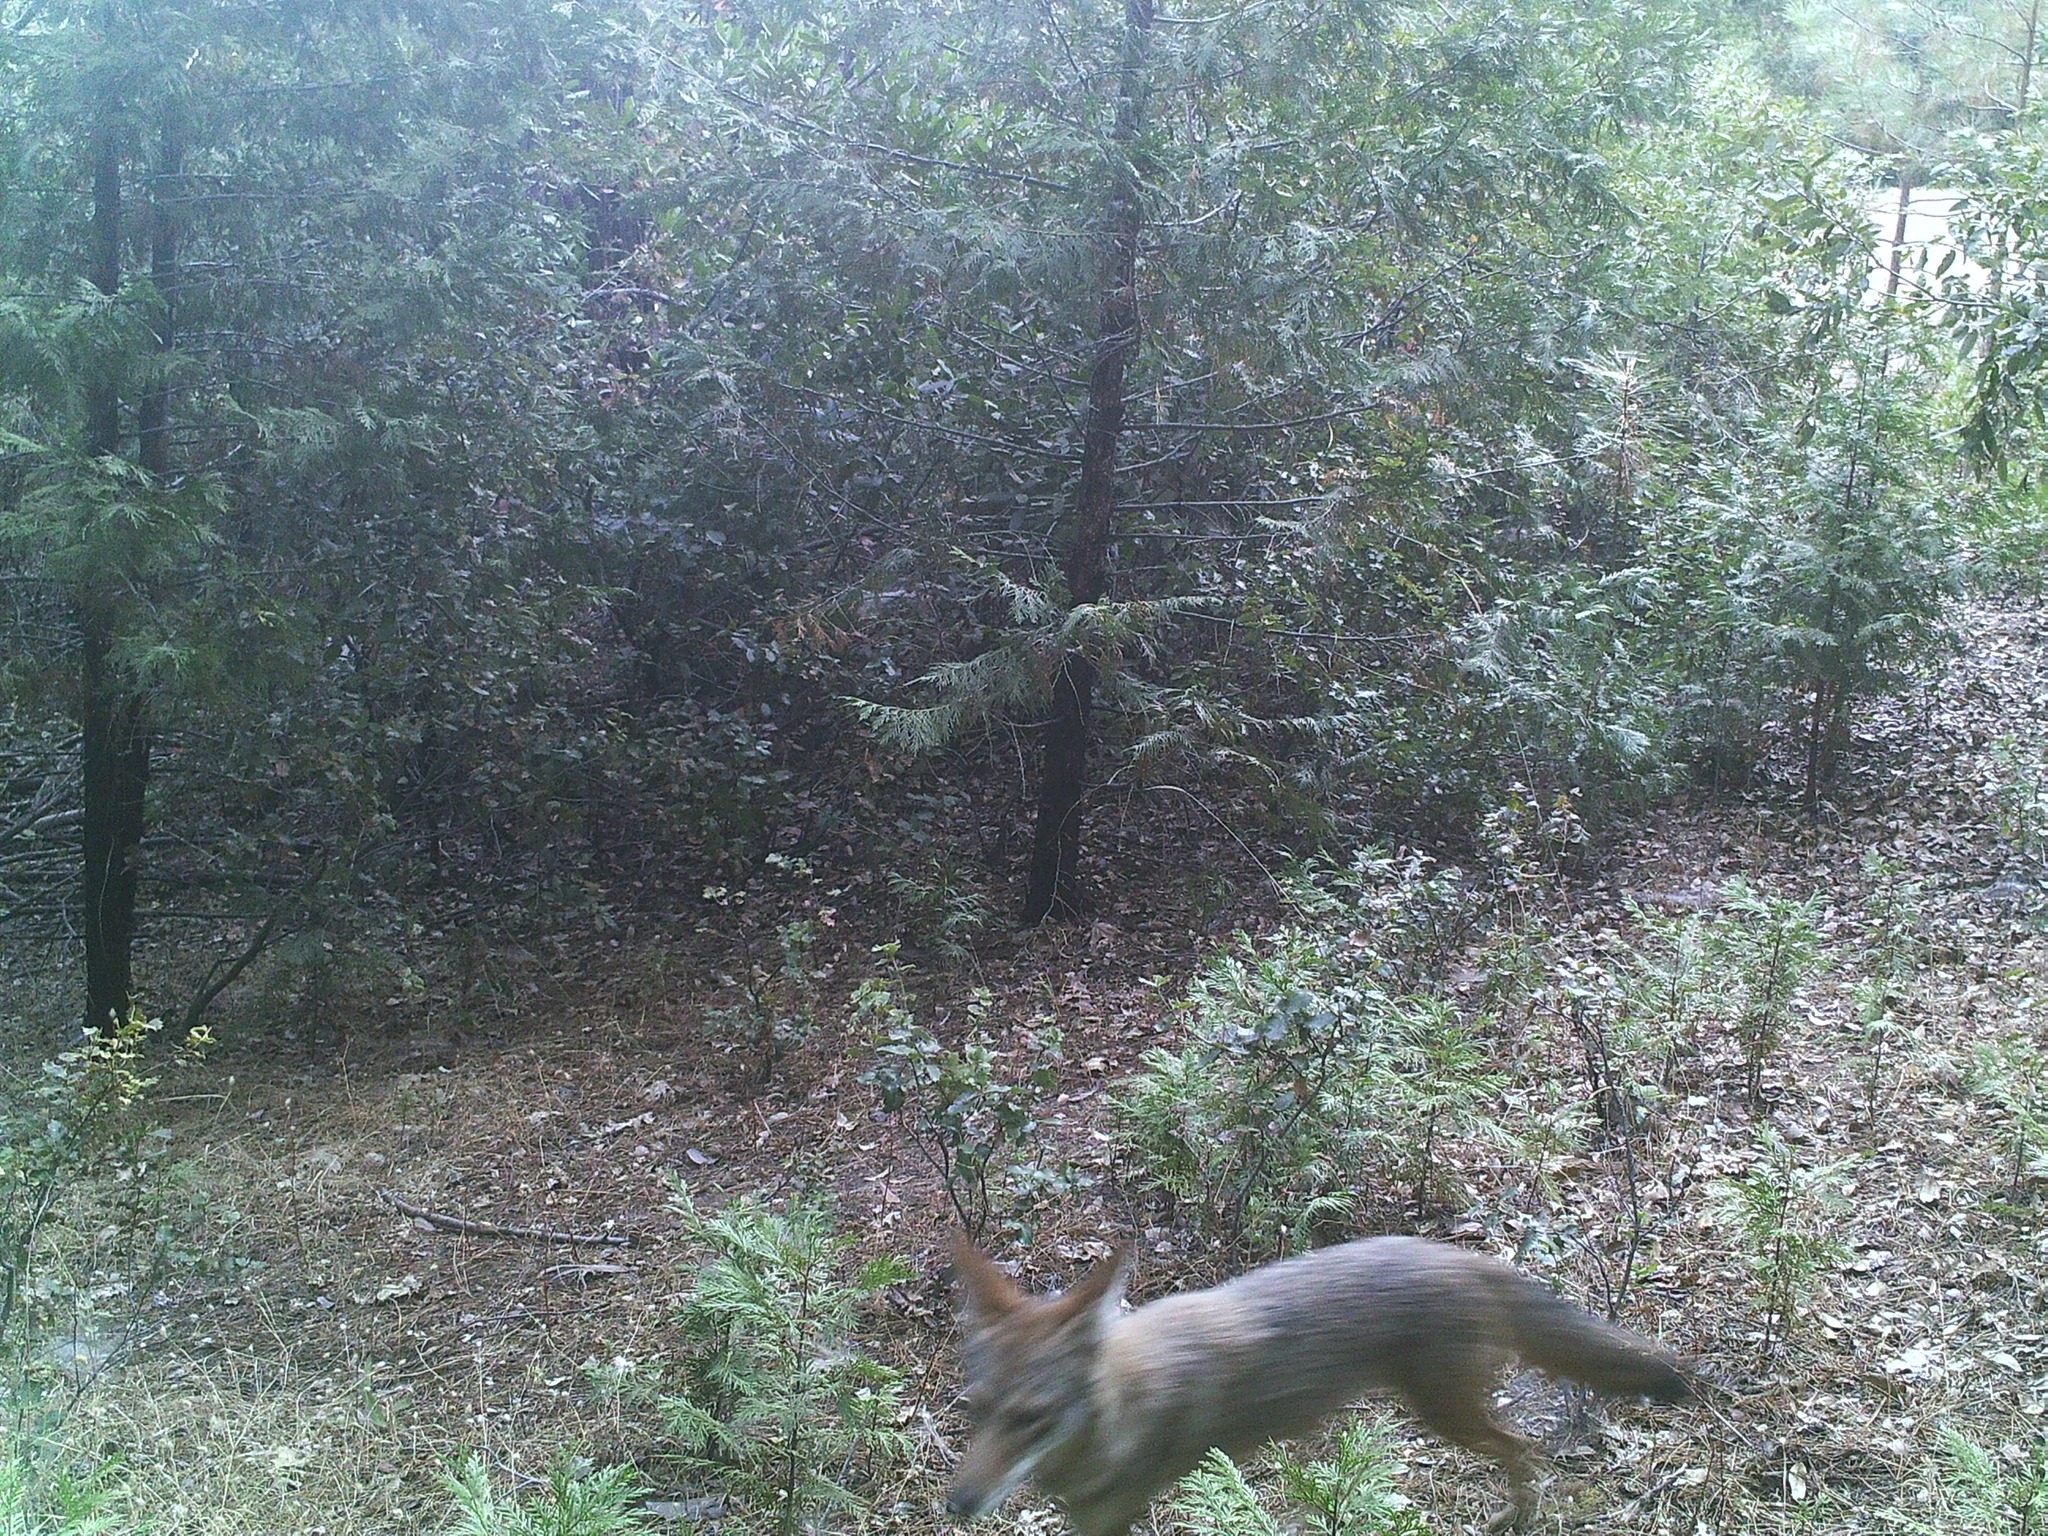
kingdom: Animalia
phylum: Chordata
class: Mammalia
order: Carnivora
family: Canidae
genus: Canis
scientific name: Canis latrans
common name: Coyote
